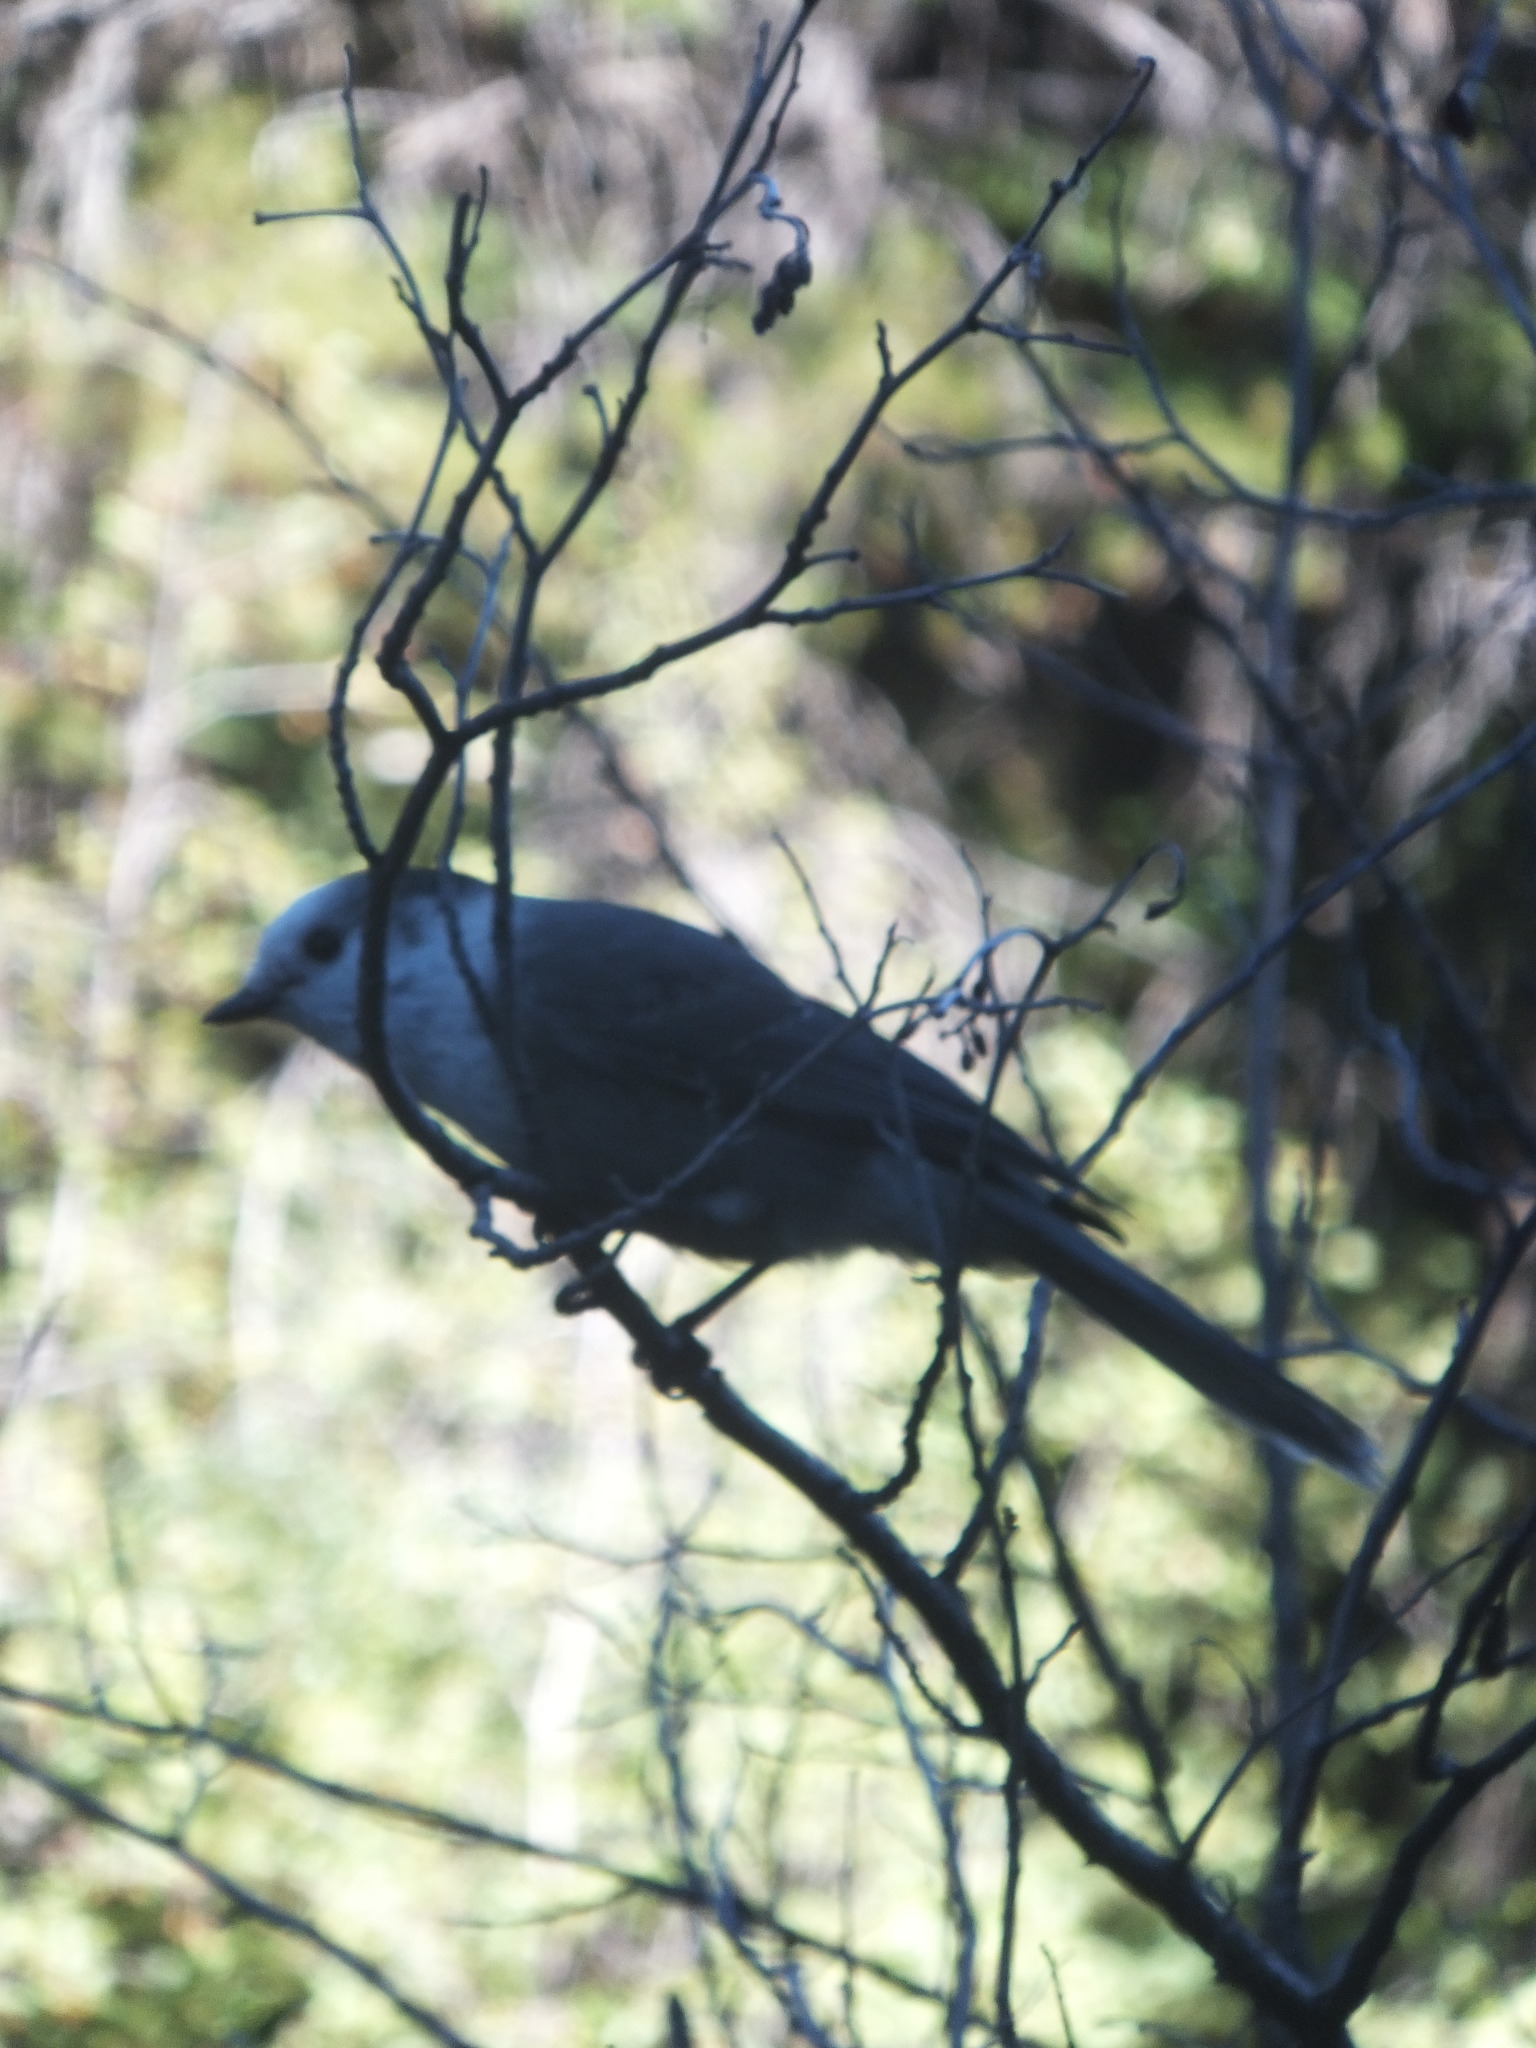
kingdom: Animalia
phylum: Chordata
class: Aves
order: Passeriformes
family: Corvidae
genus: Perisoreus
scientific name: Perisoreus canadensis
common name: Gray jay
